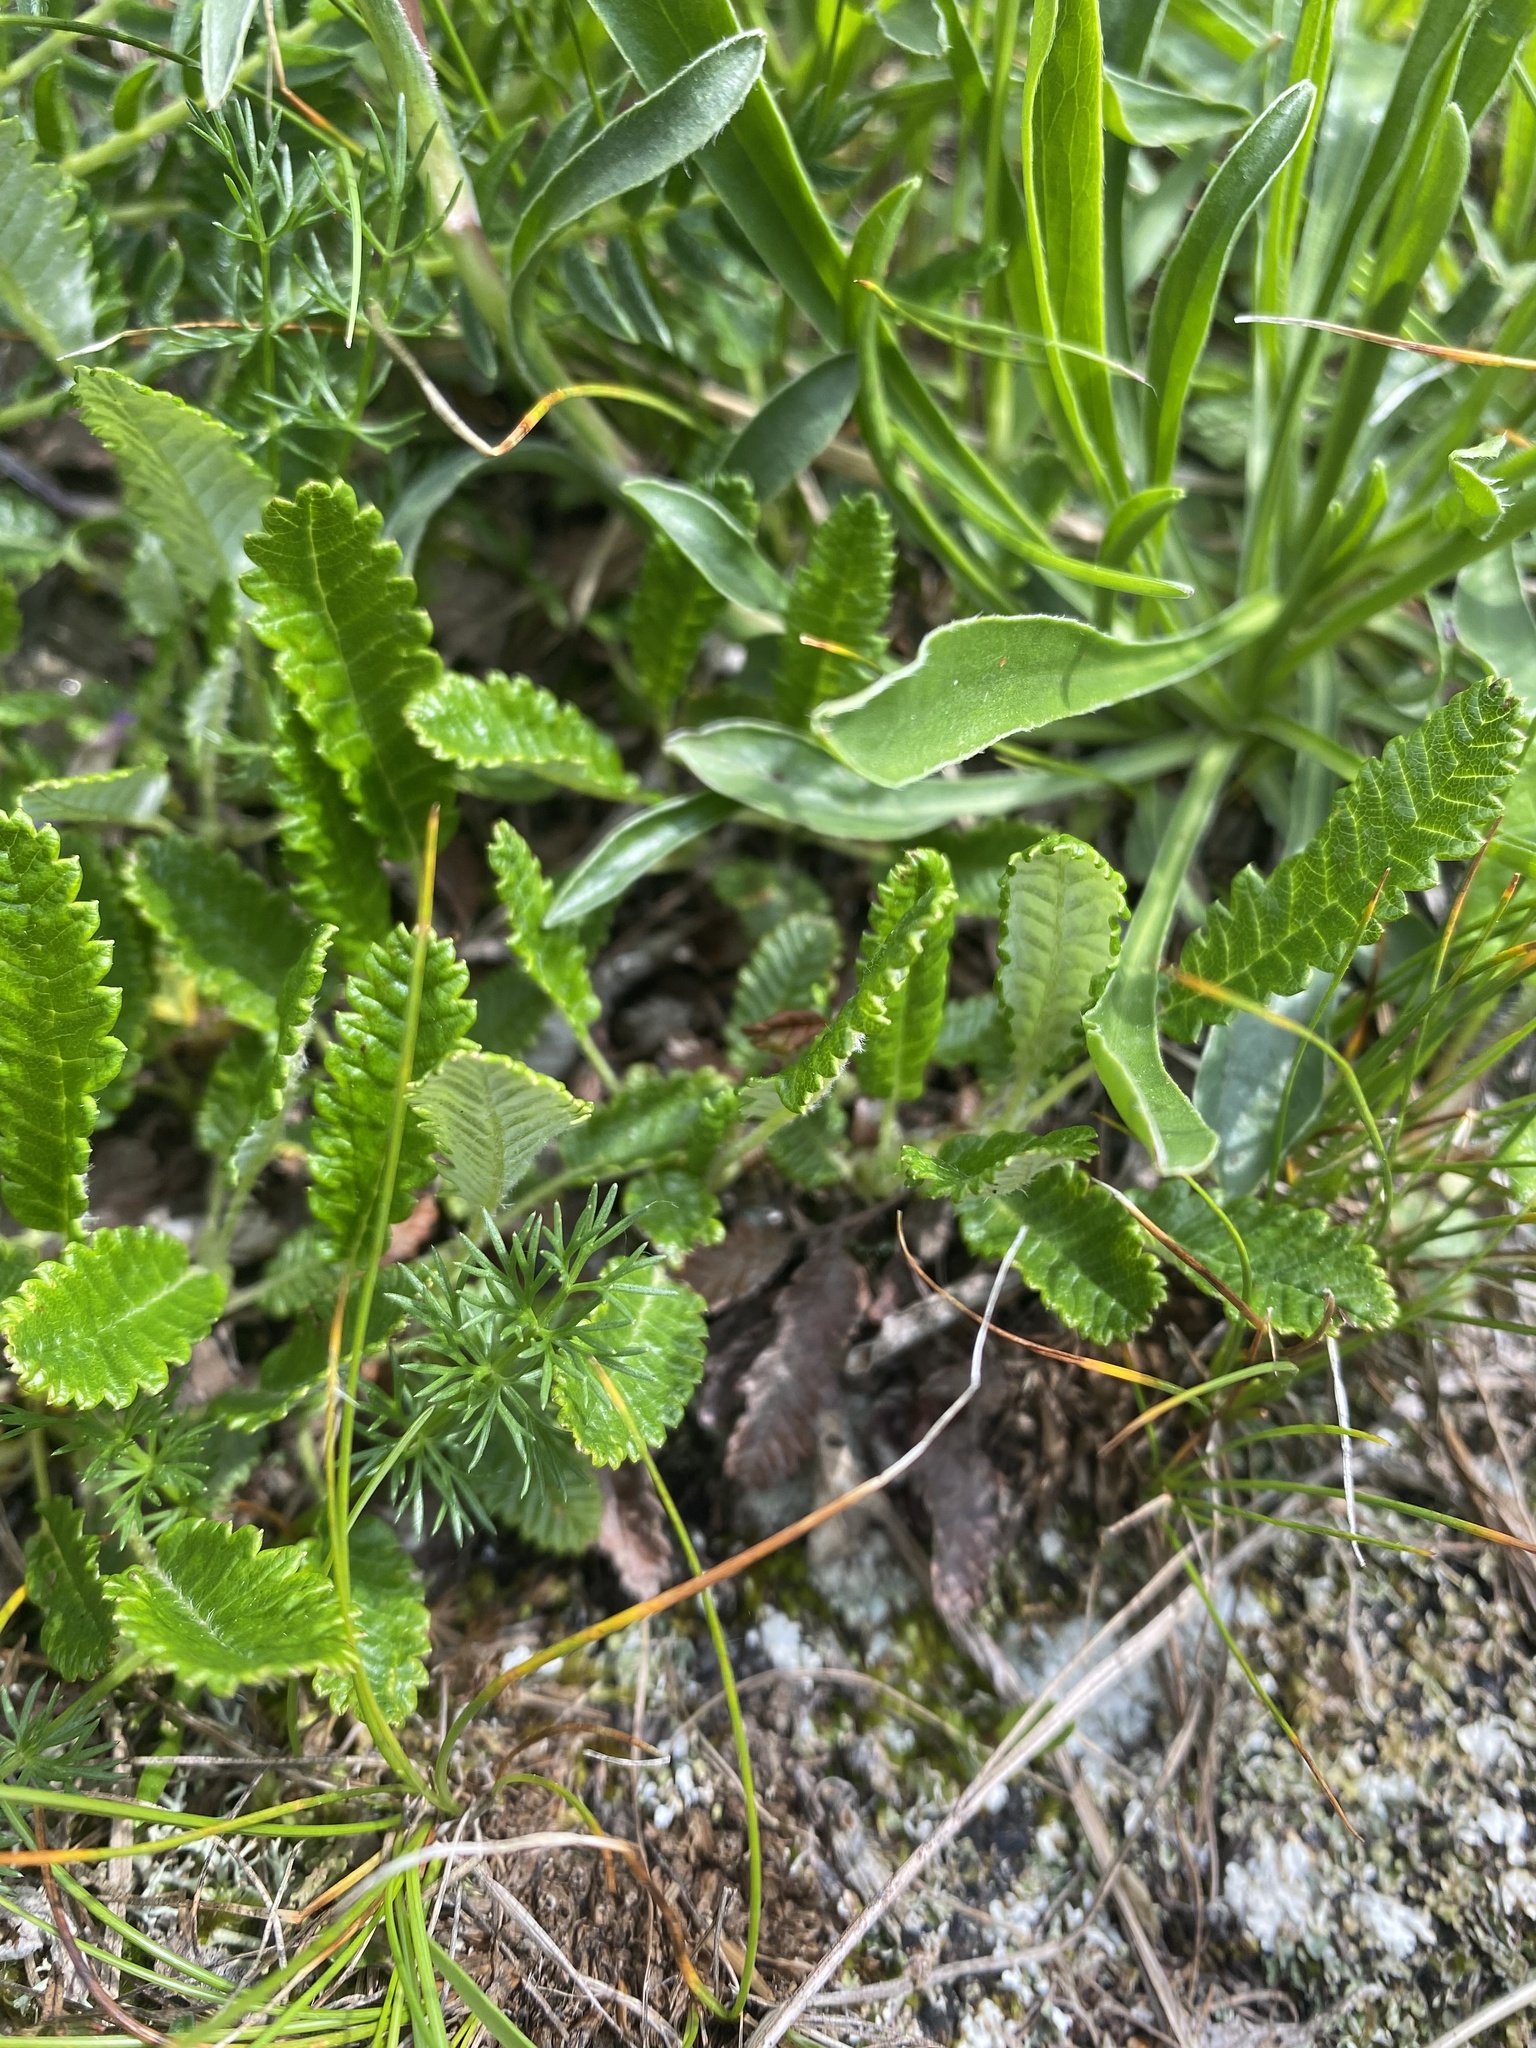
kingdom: Plantae
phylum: Tracheophyta
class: Magnoliopsida
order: Rosales
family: Rosaceae
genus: Dryas
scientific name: Dryas octopetala
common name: Eight-petal mountain-avens
